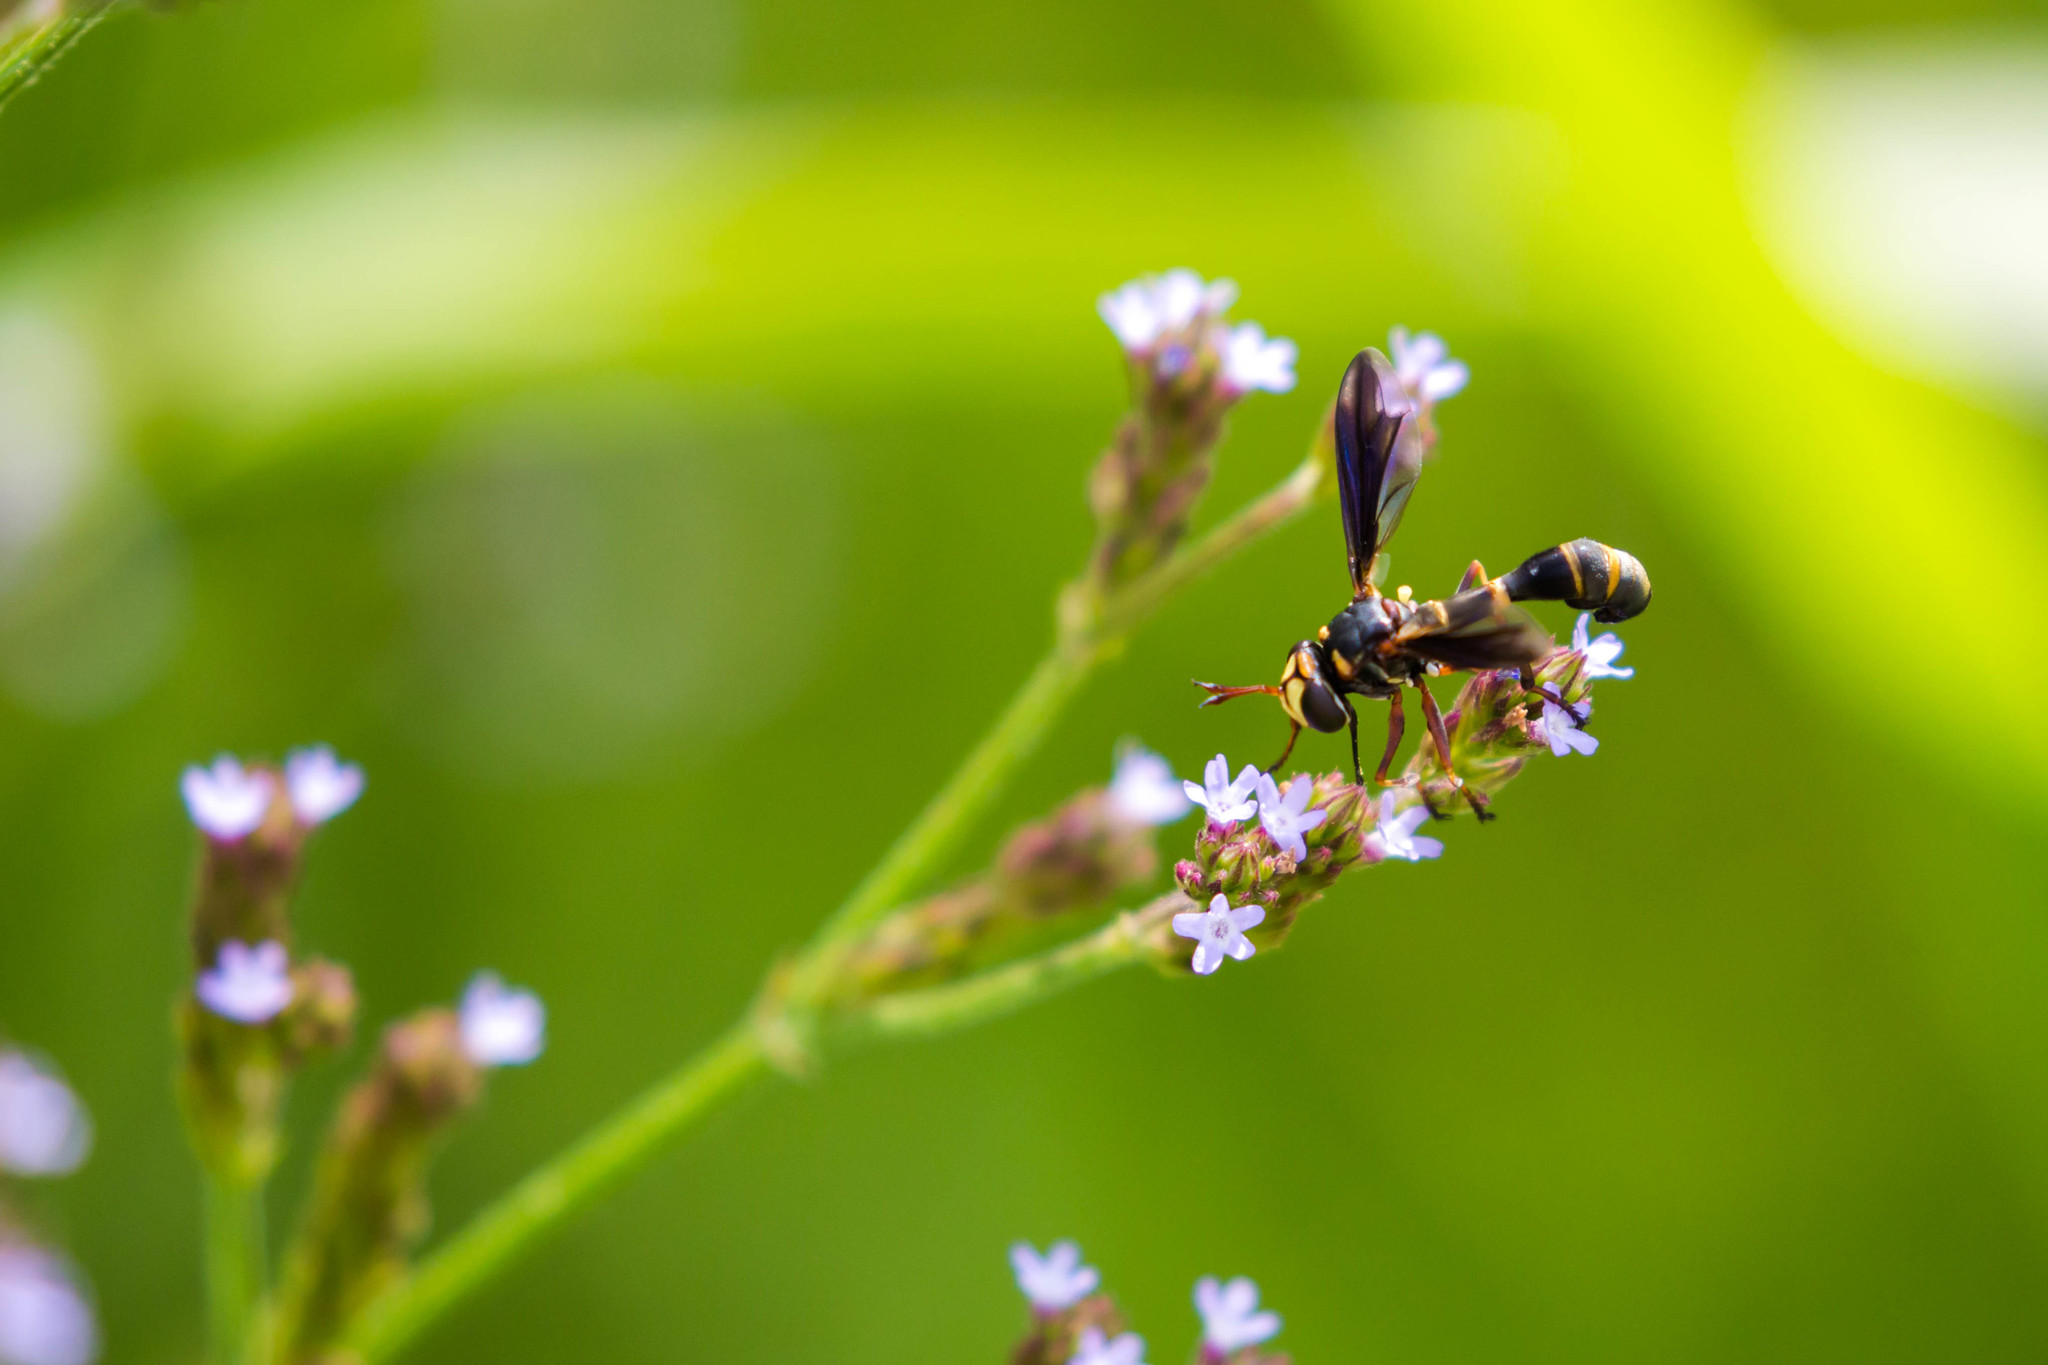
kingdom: Animalia
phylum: Arthropoda
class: Insecta
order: Diptera
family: Conopidae
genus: Physocephala
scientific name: Physocephala sagittaria
